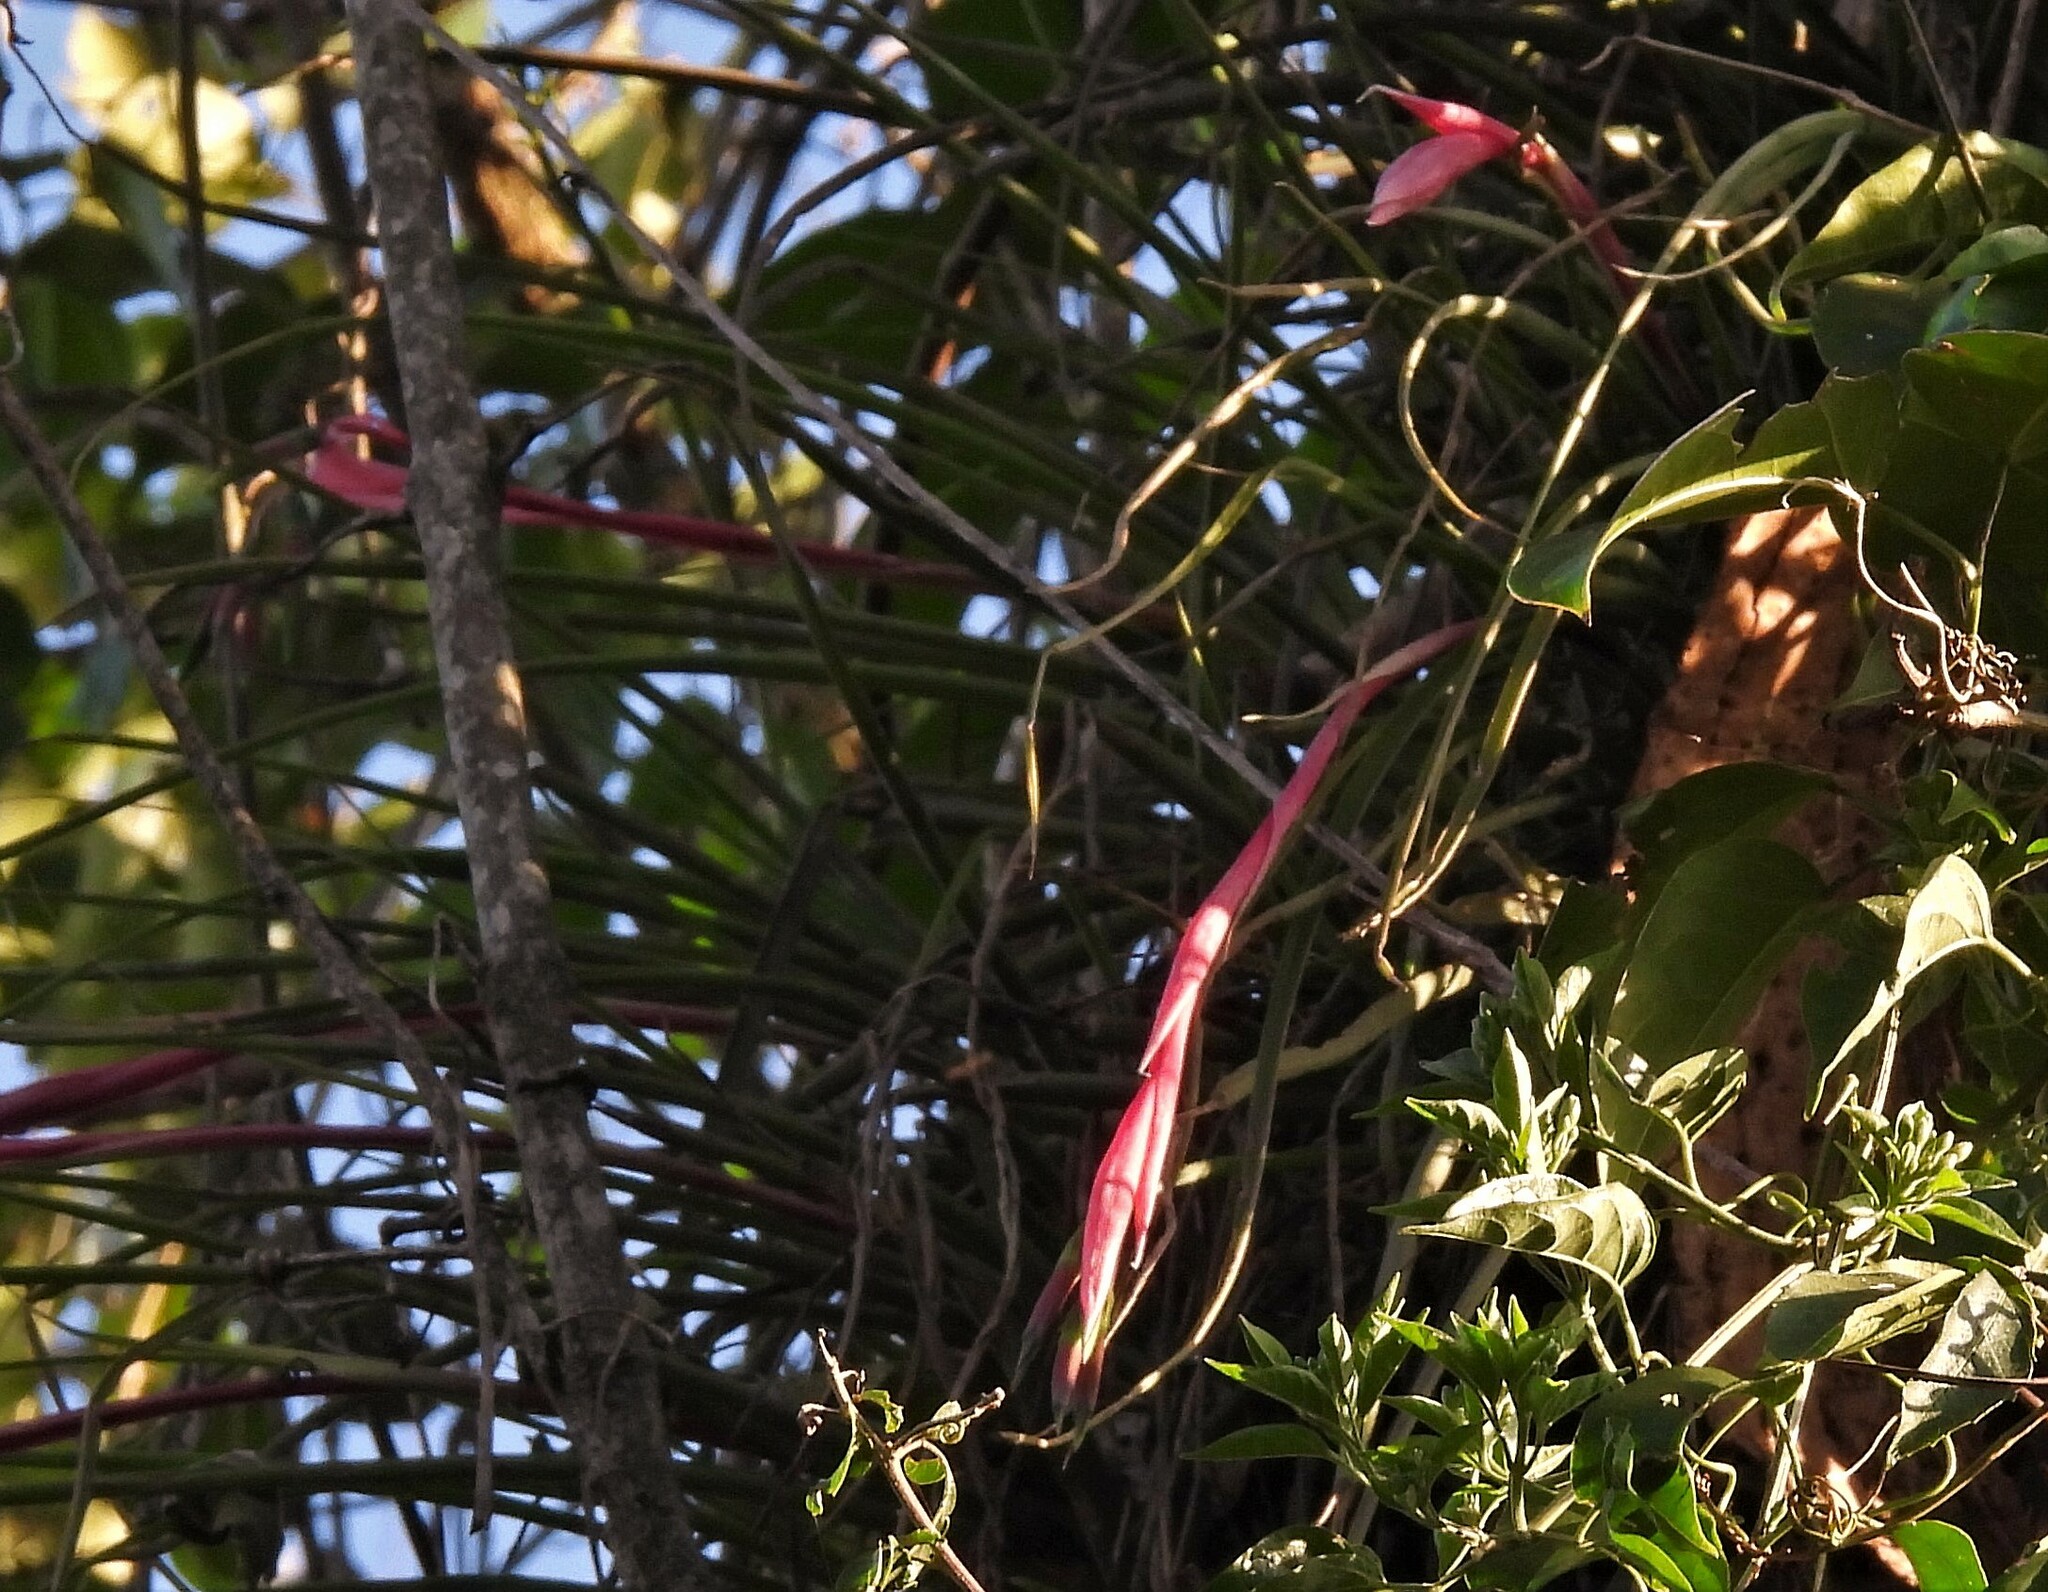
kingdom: Plantae
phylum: Tracheophyta
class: Liliopsida
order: Poales
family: Bromeliaceae
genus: Billbergia
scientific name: Billbergia nutans
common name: Friendship-plant
